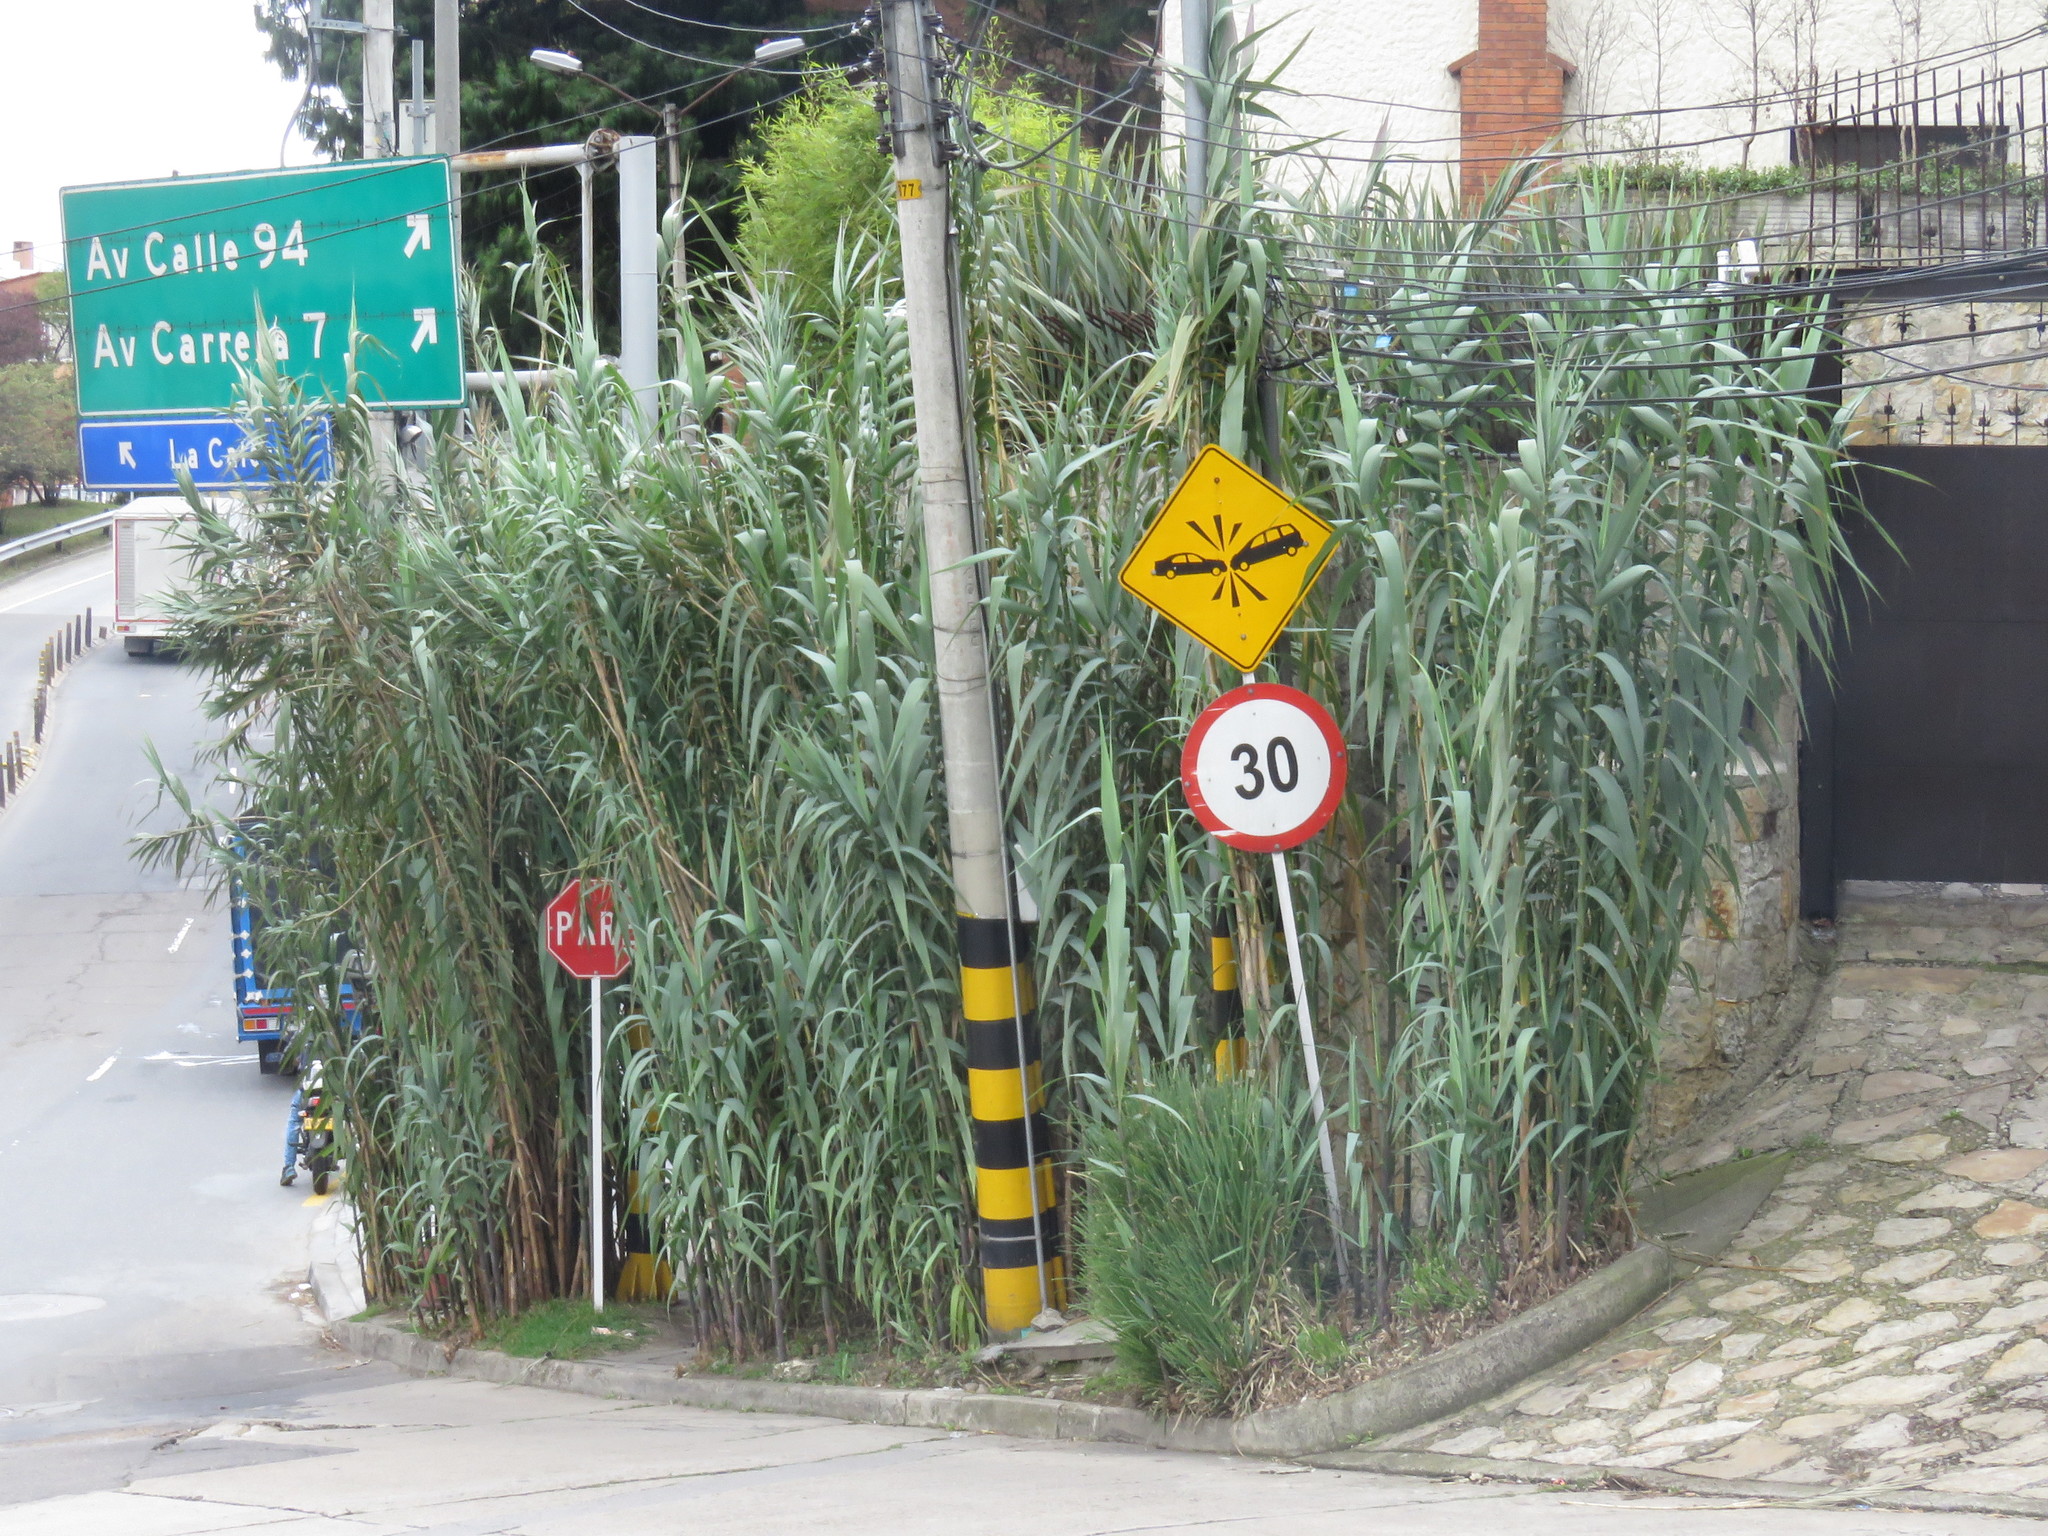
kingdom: Plantae
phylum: Tracheophyta
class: Liliopsida
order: Poales
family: Poaceae
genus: Arundo
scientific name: Arundo donax
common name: Giant reed
